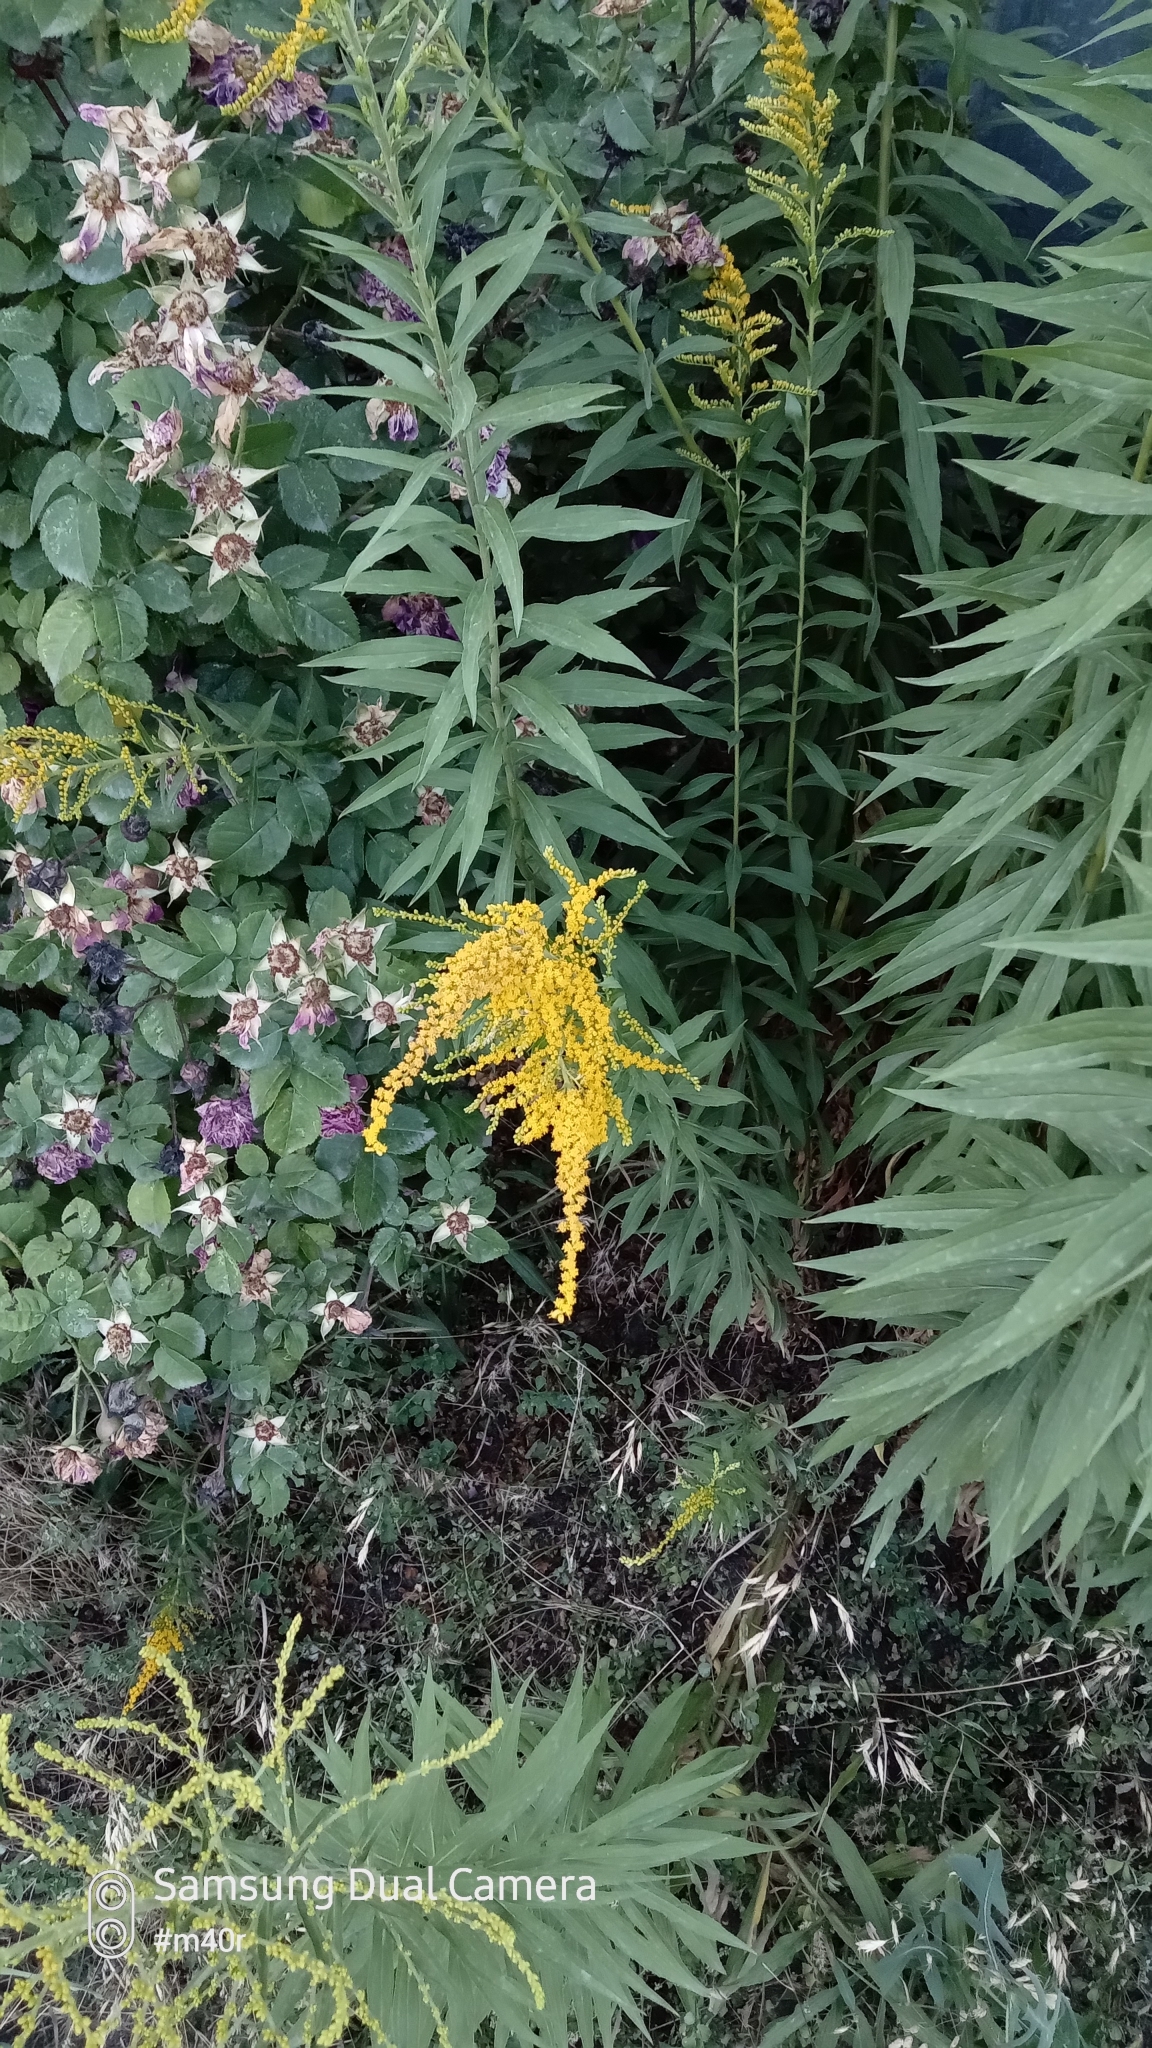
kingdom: Plantae
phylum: Tracheophyta
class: Magnoliopsida
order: Asterales
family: Asteraceae
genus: Solidago
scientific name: Solidago canadensis
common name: Canada goldenrod
